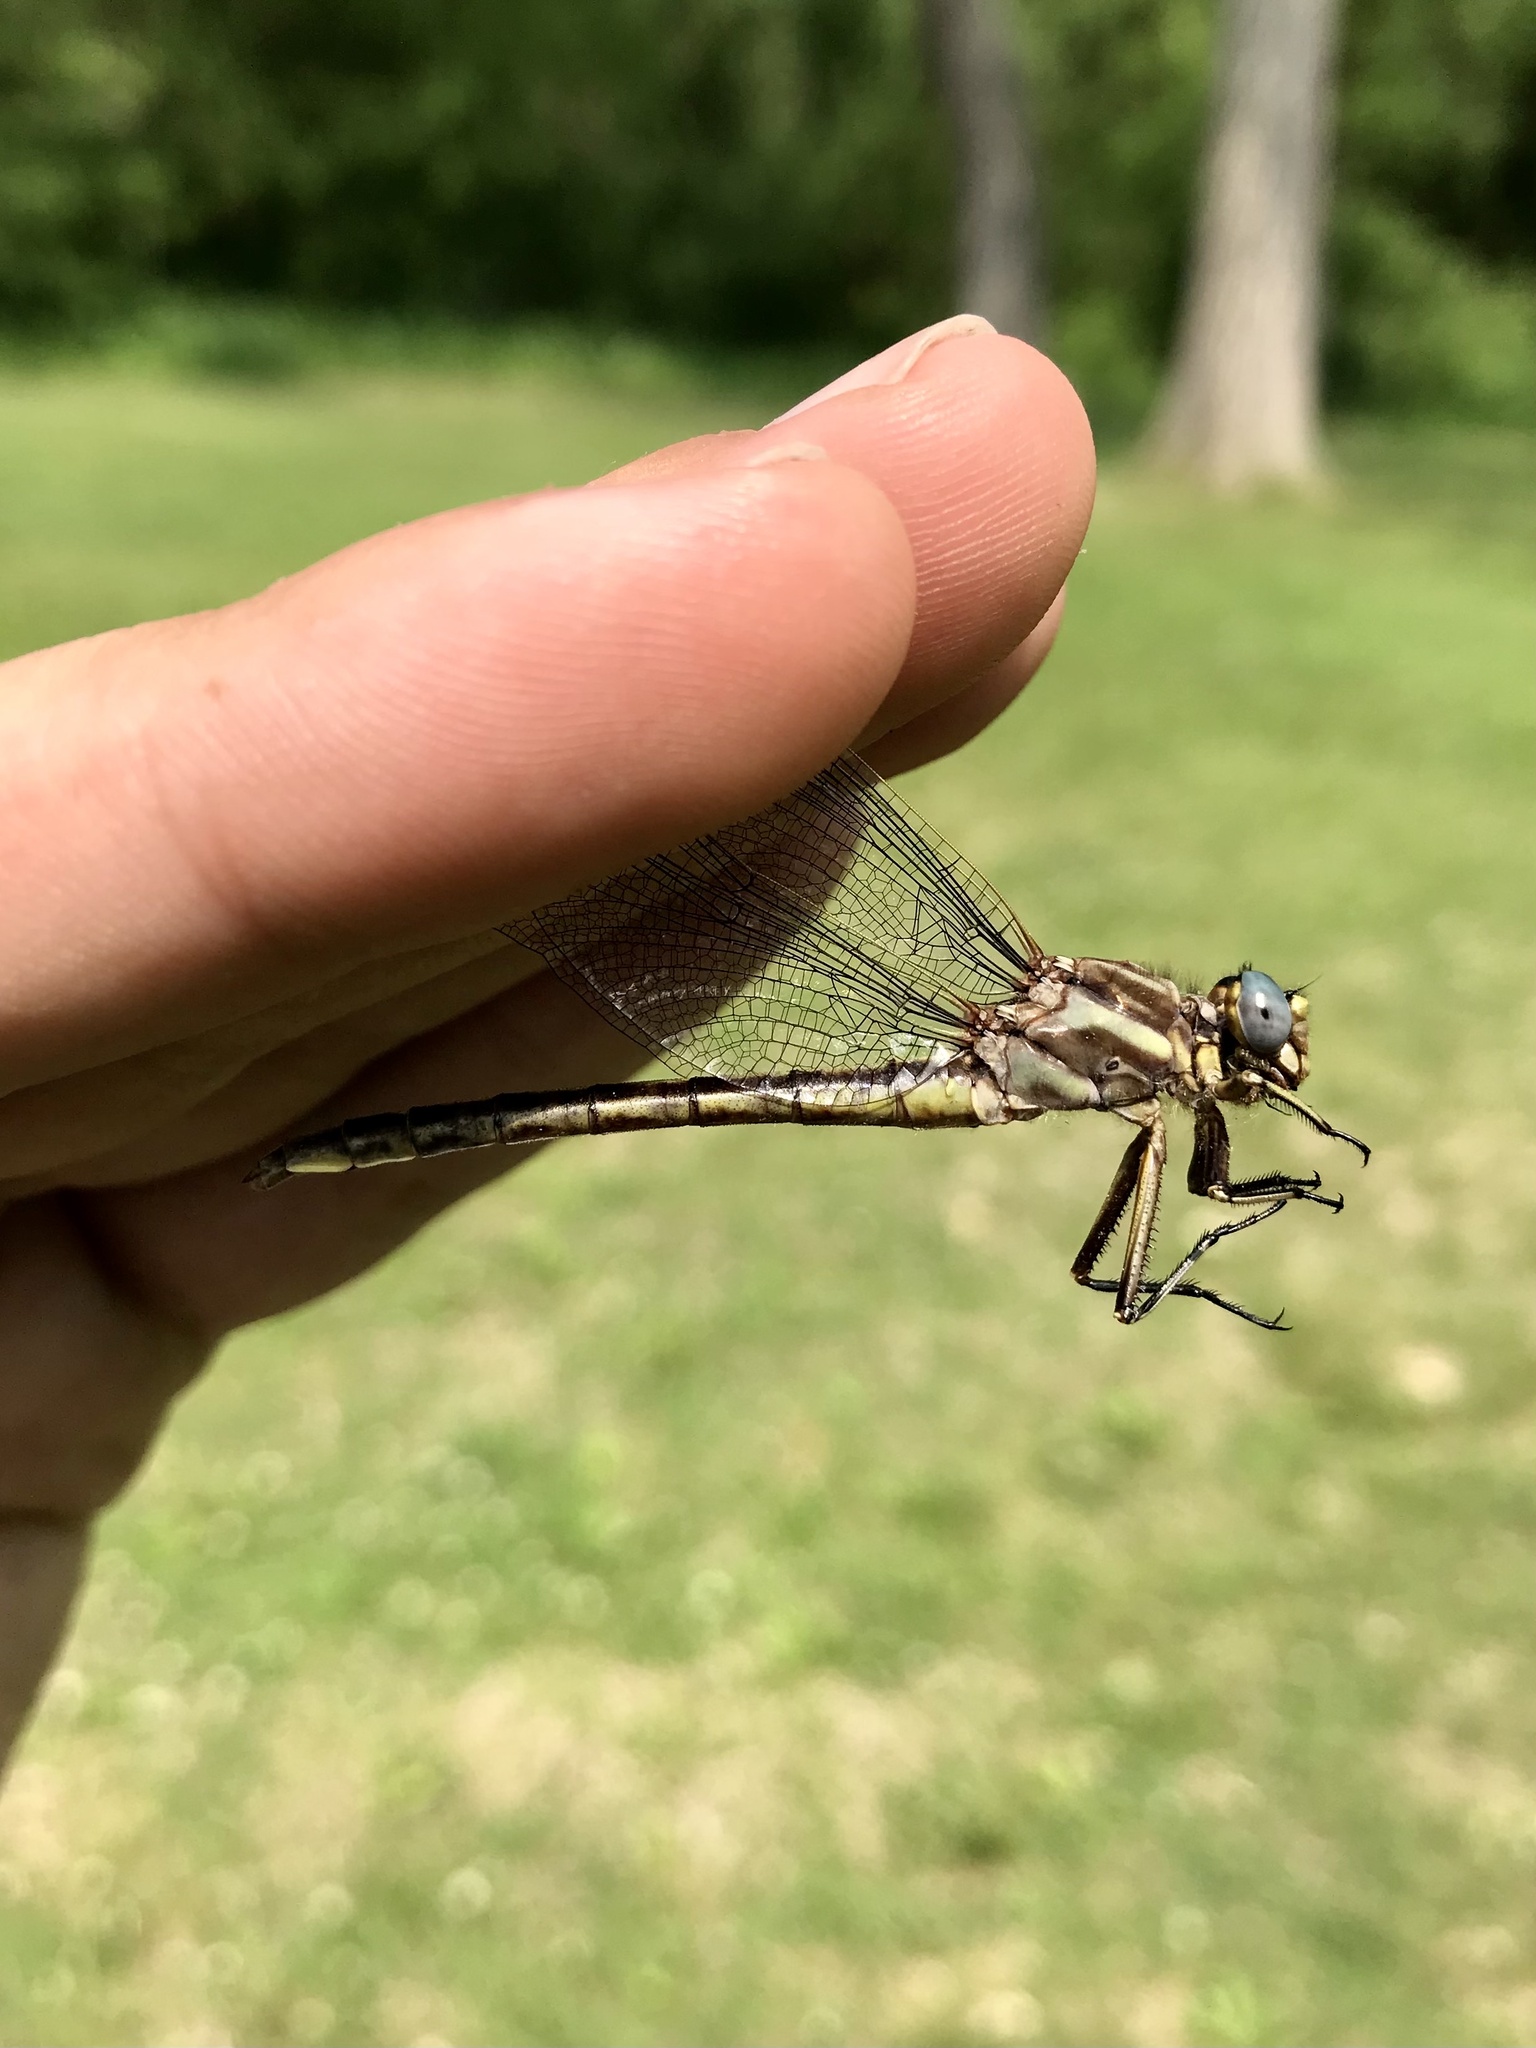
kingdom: Animalia
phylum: Arthropoda
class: Insecta
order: Odonata
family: Gomphidae
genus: Phanogomphus
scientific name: Phanogomphus spicatus
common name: Dusky clubtail
